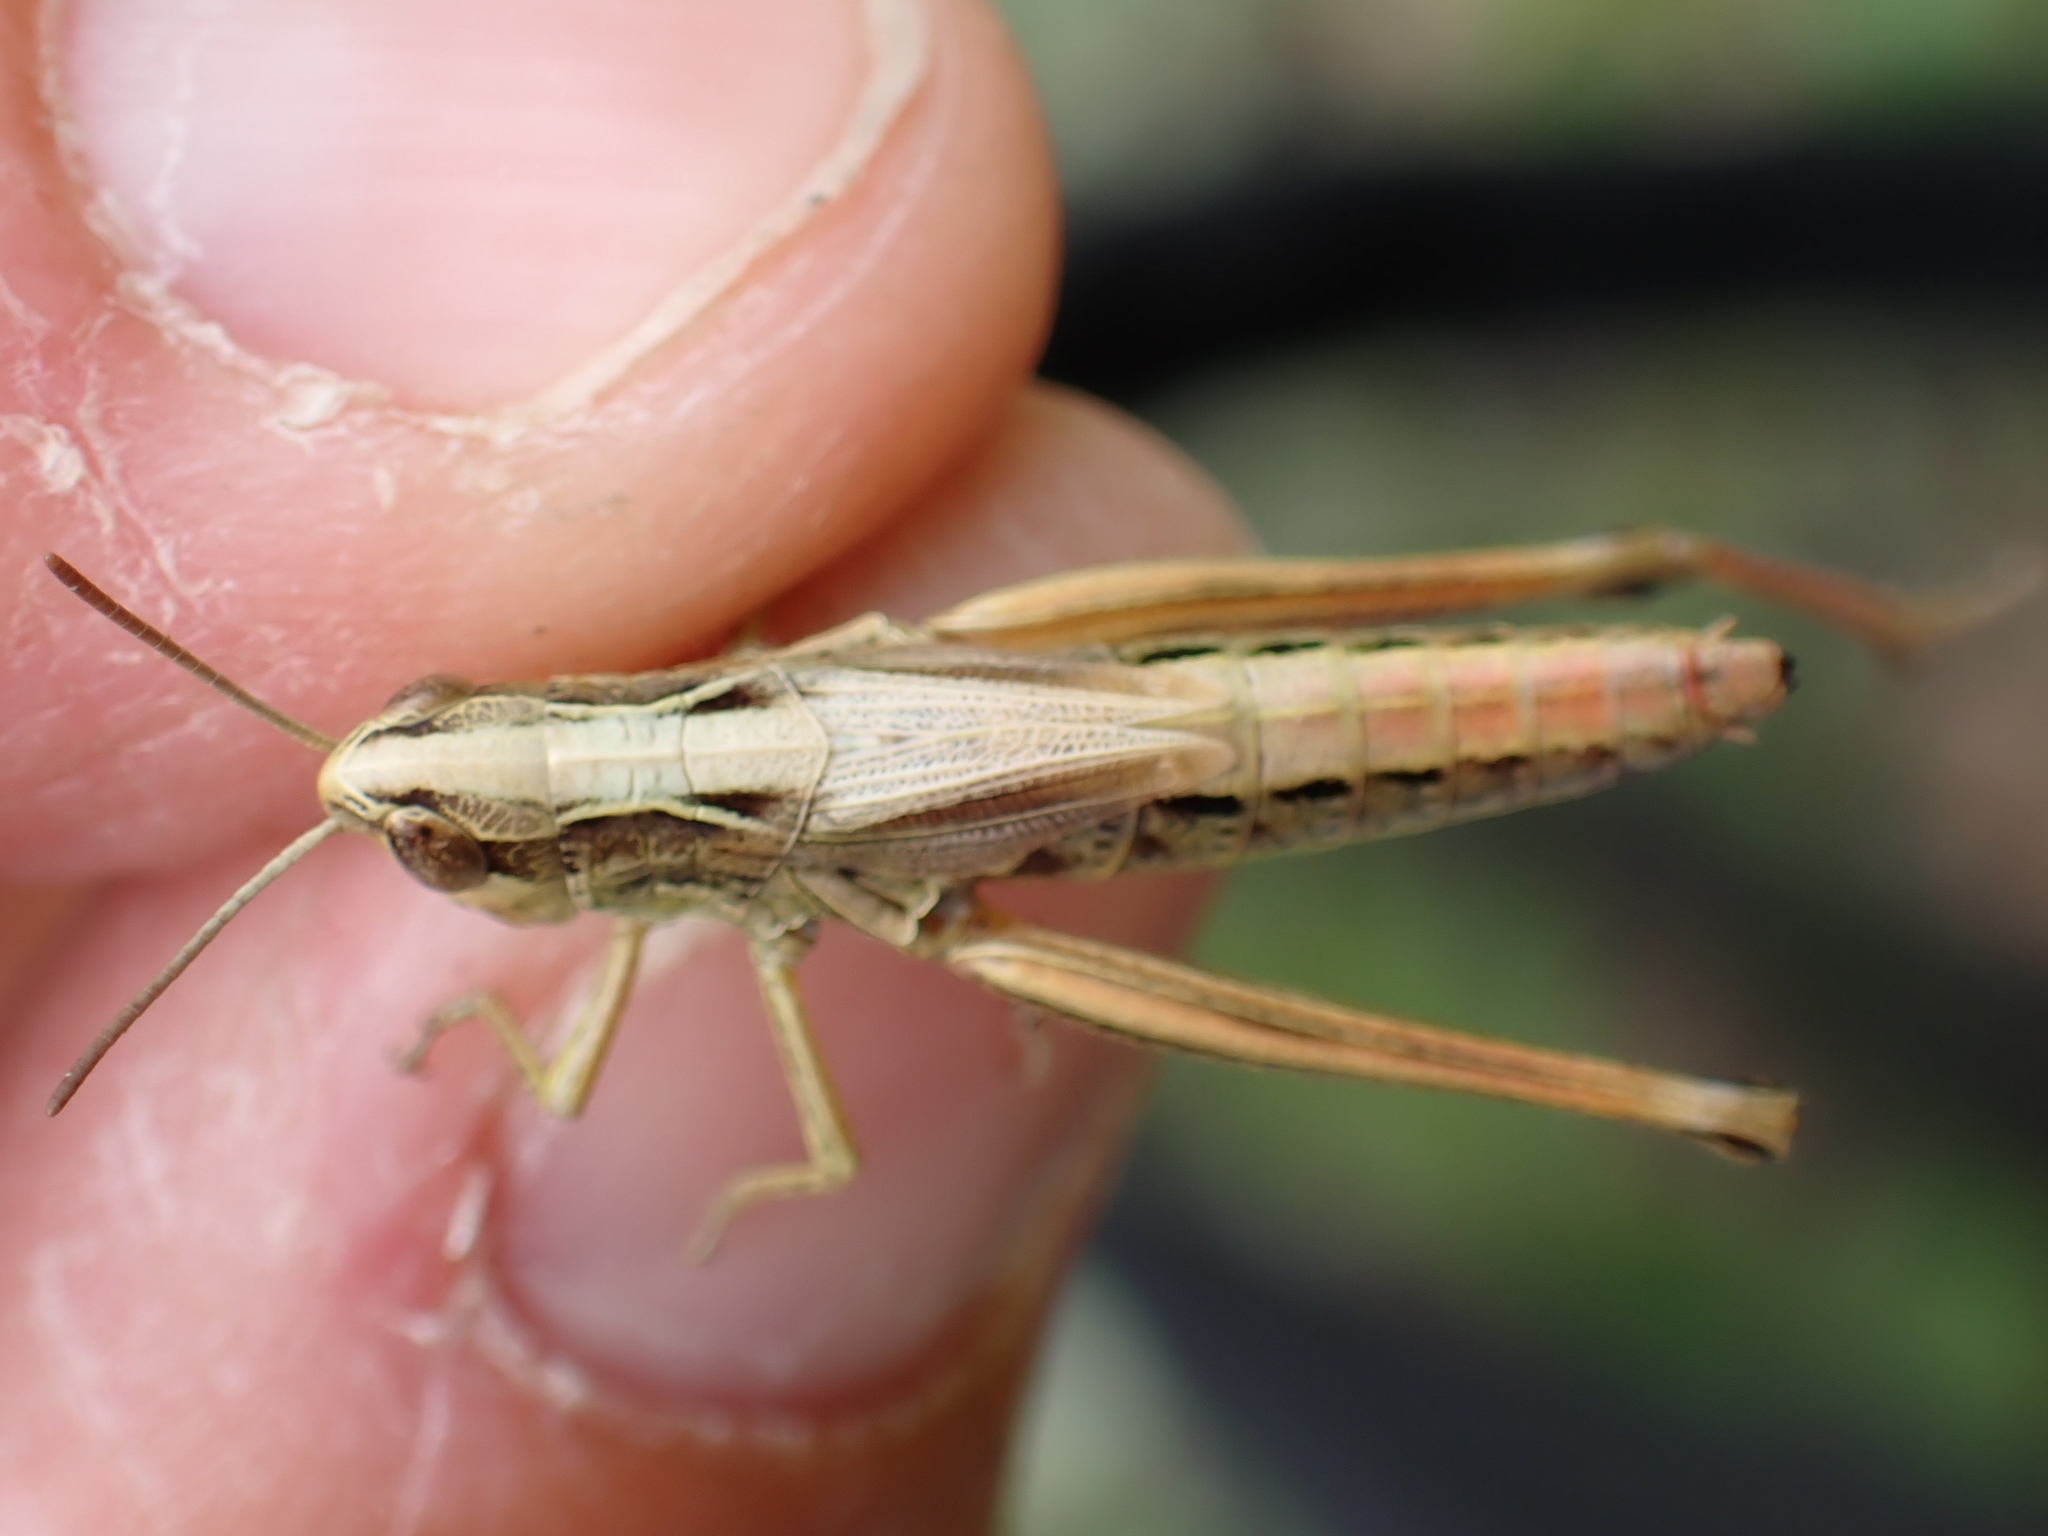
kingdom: Animalia
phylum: Arthropoda
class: Insecta
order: Orthoptera
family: Acrididae
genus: Pseudochorthippus
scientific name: Pseudochorthippus parallelus
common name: Meadow grasshopper
